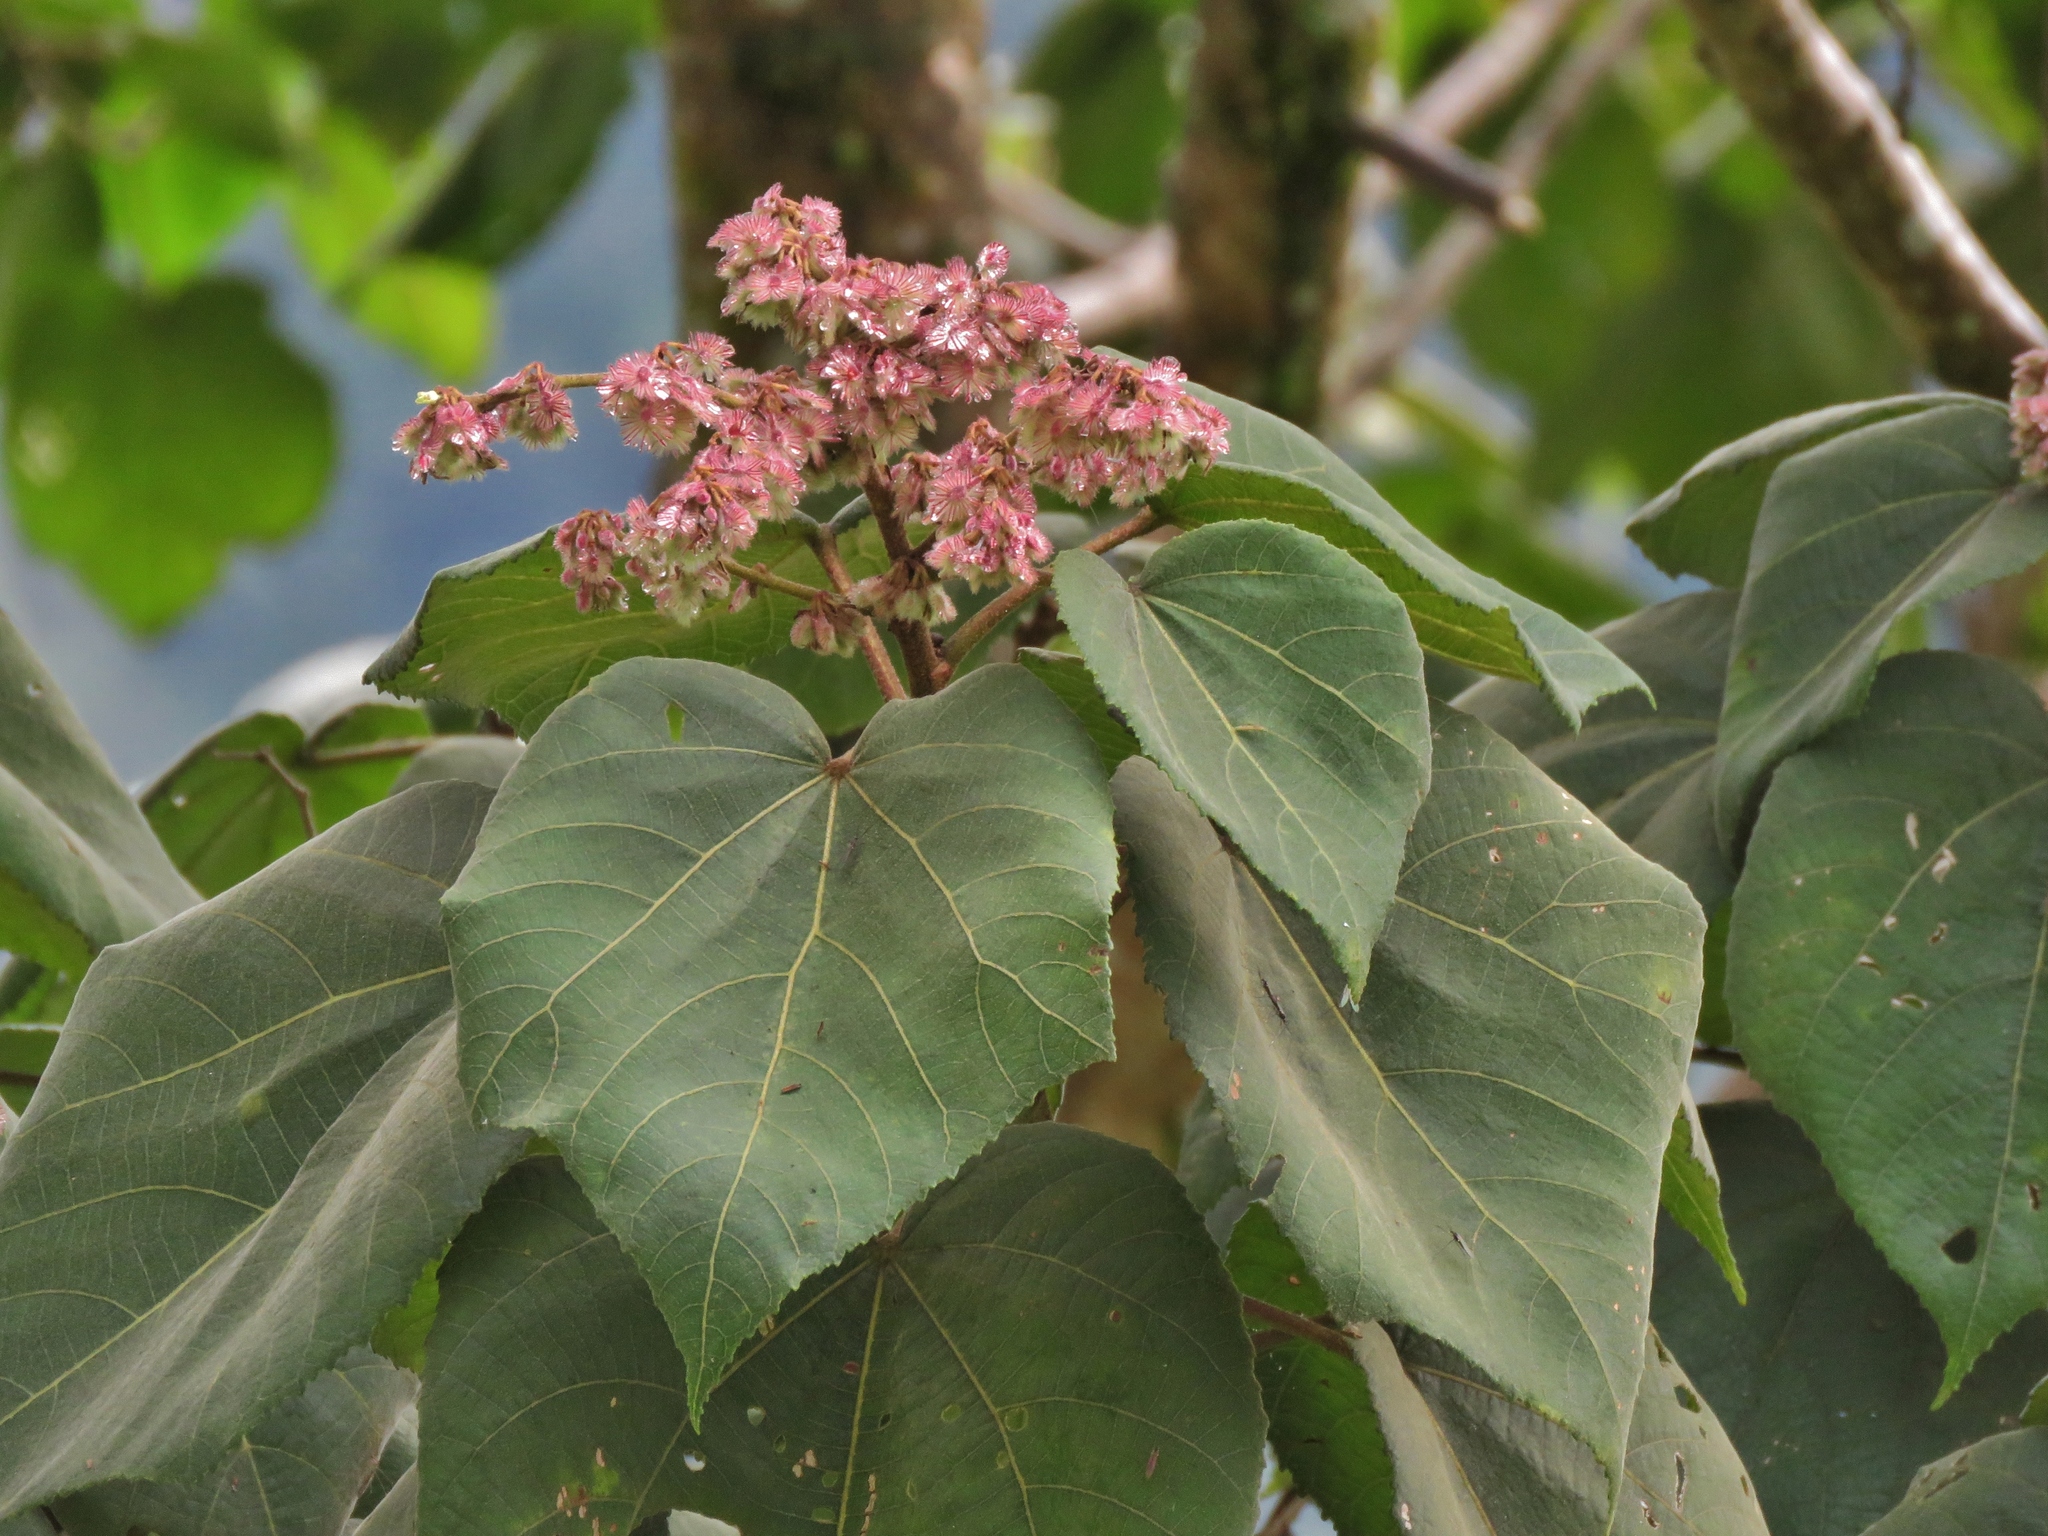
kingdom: Plantae
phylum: Tracheophyta
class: Magnoliopsida
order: Malvales
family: Malvaceae
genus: Heliocarpus
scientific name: Heliocarpus americanus
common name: White moho
